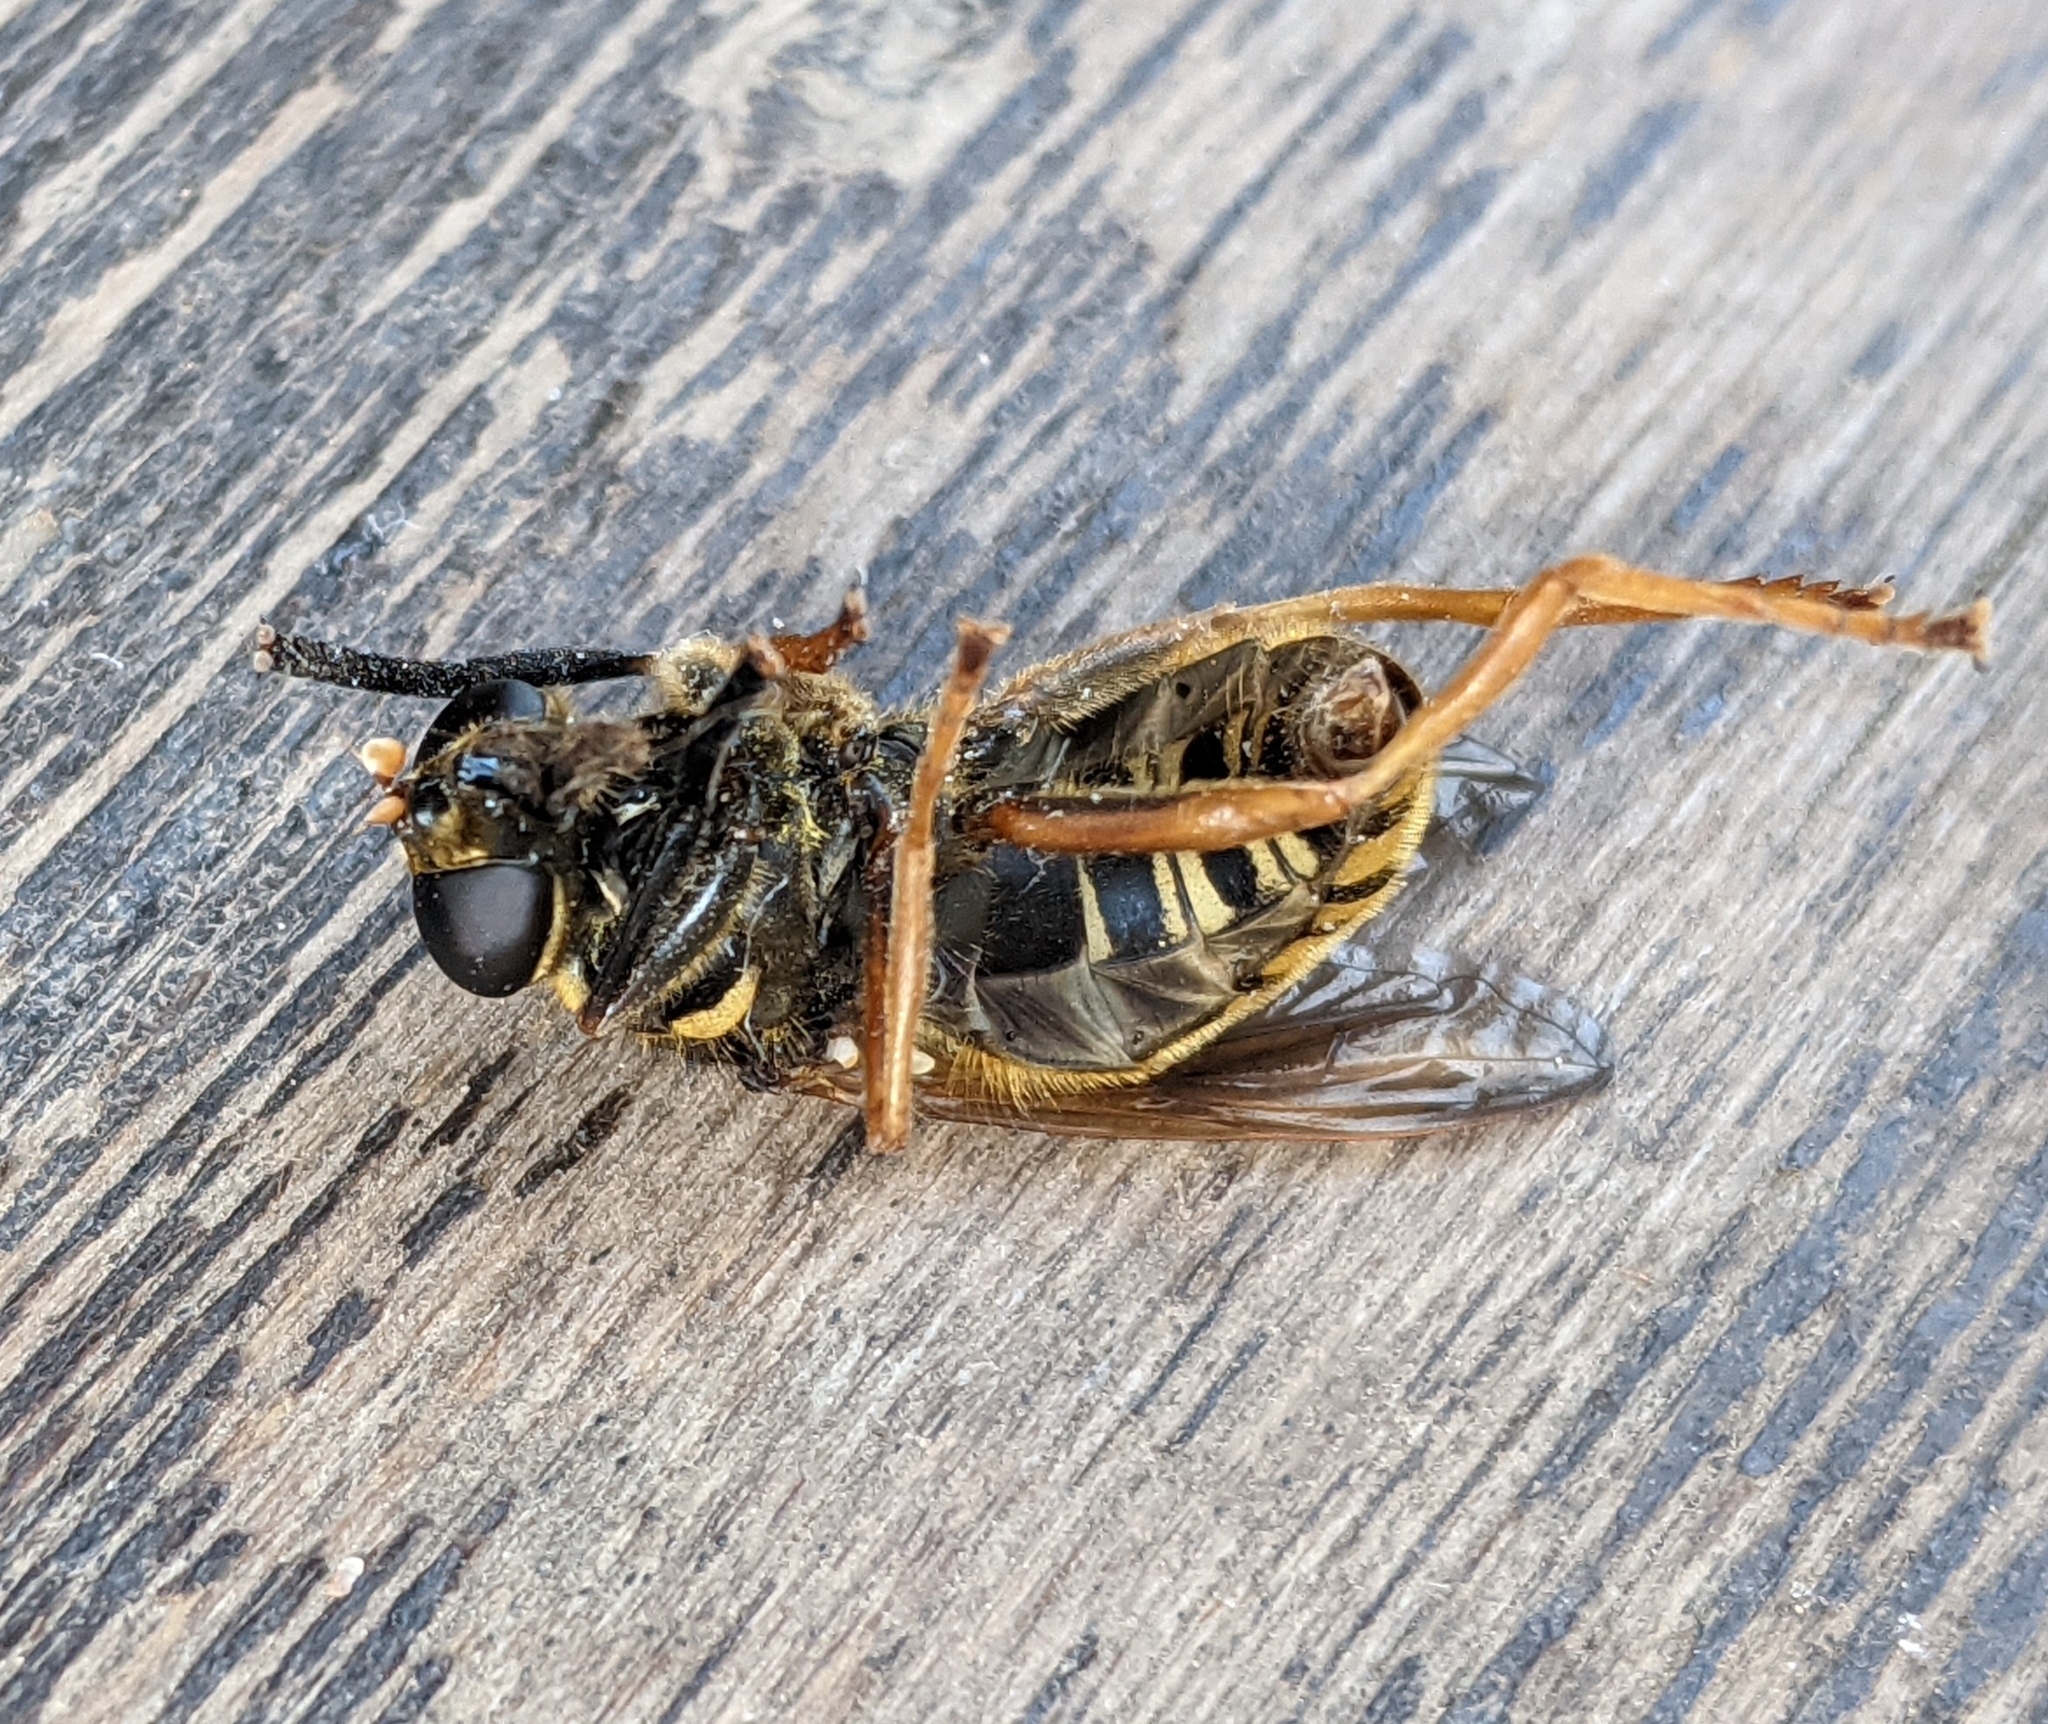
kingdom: Animalia
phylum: Arthropoda
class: Insecta
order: Diptera
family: Syrphidae
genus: Temnostoma
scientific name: Temnostoma vespiforme
